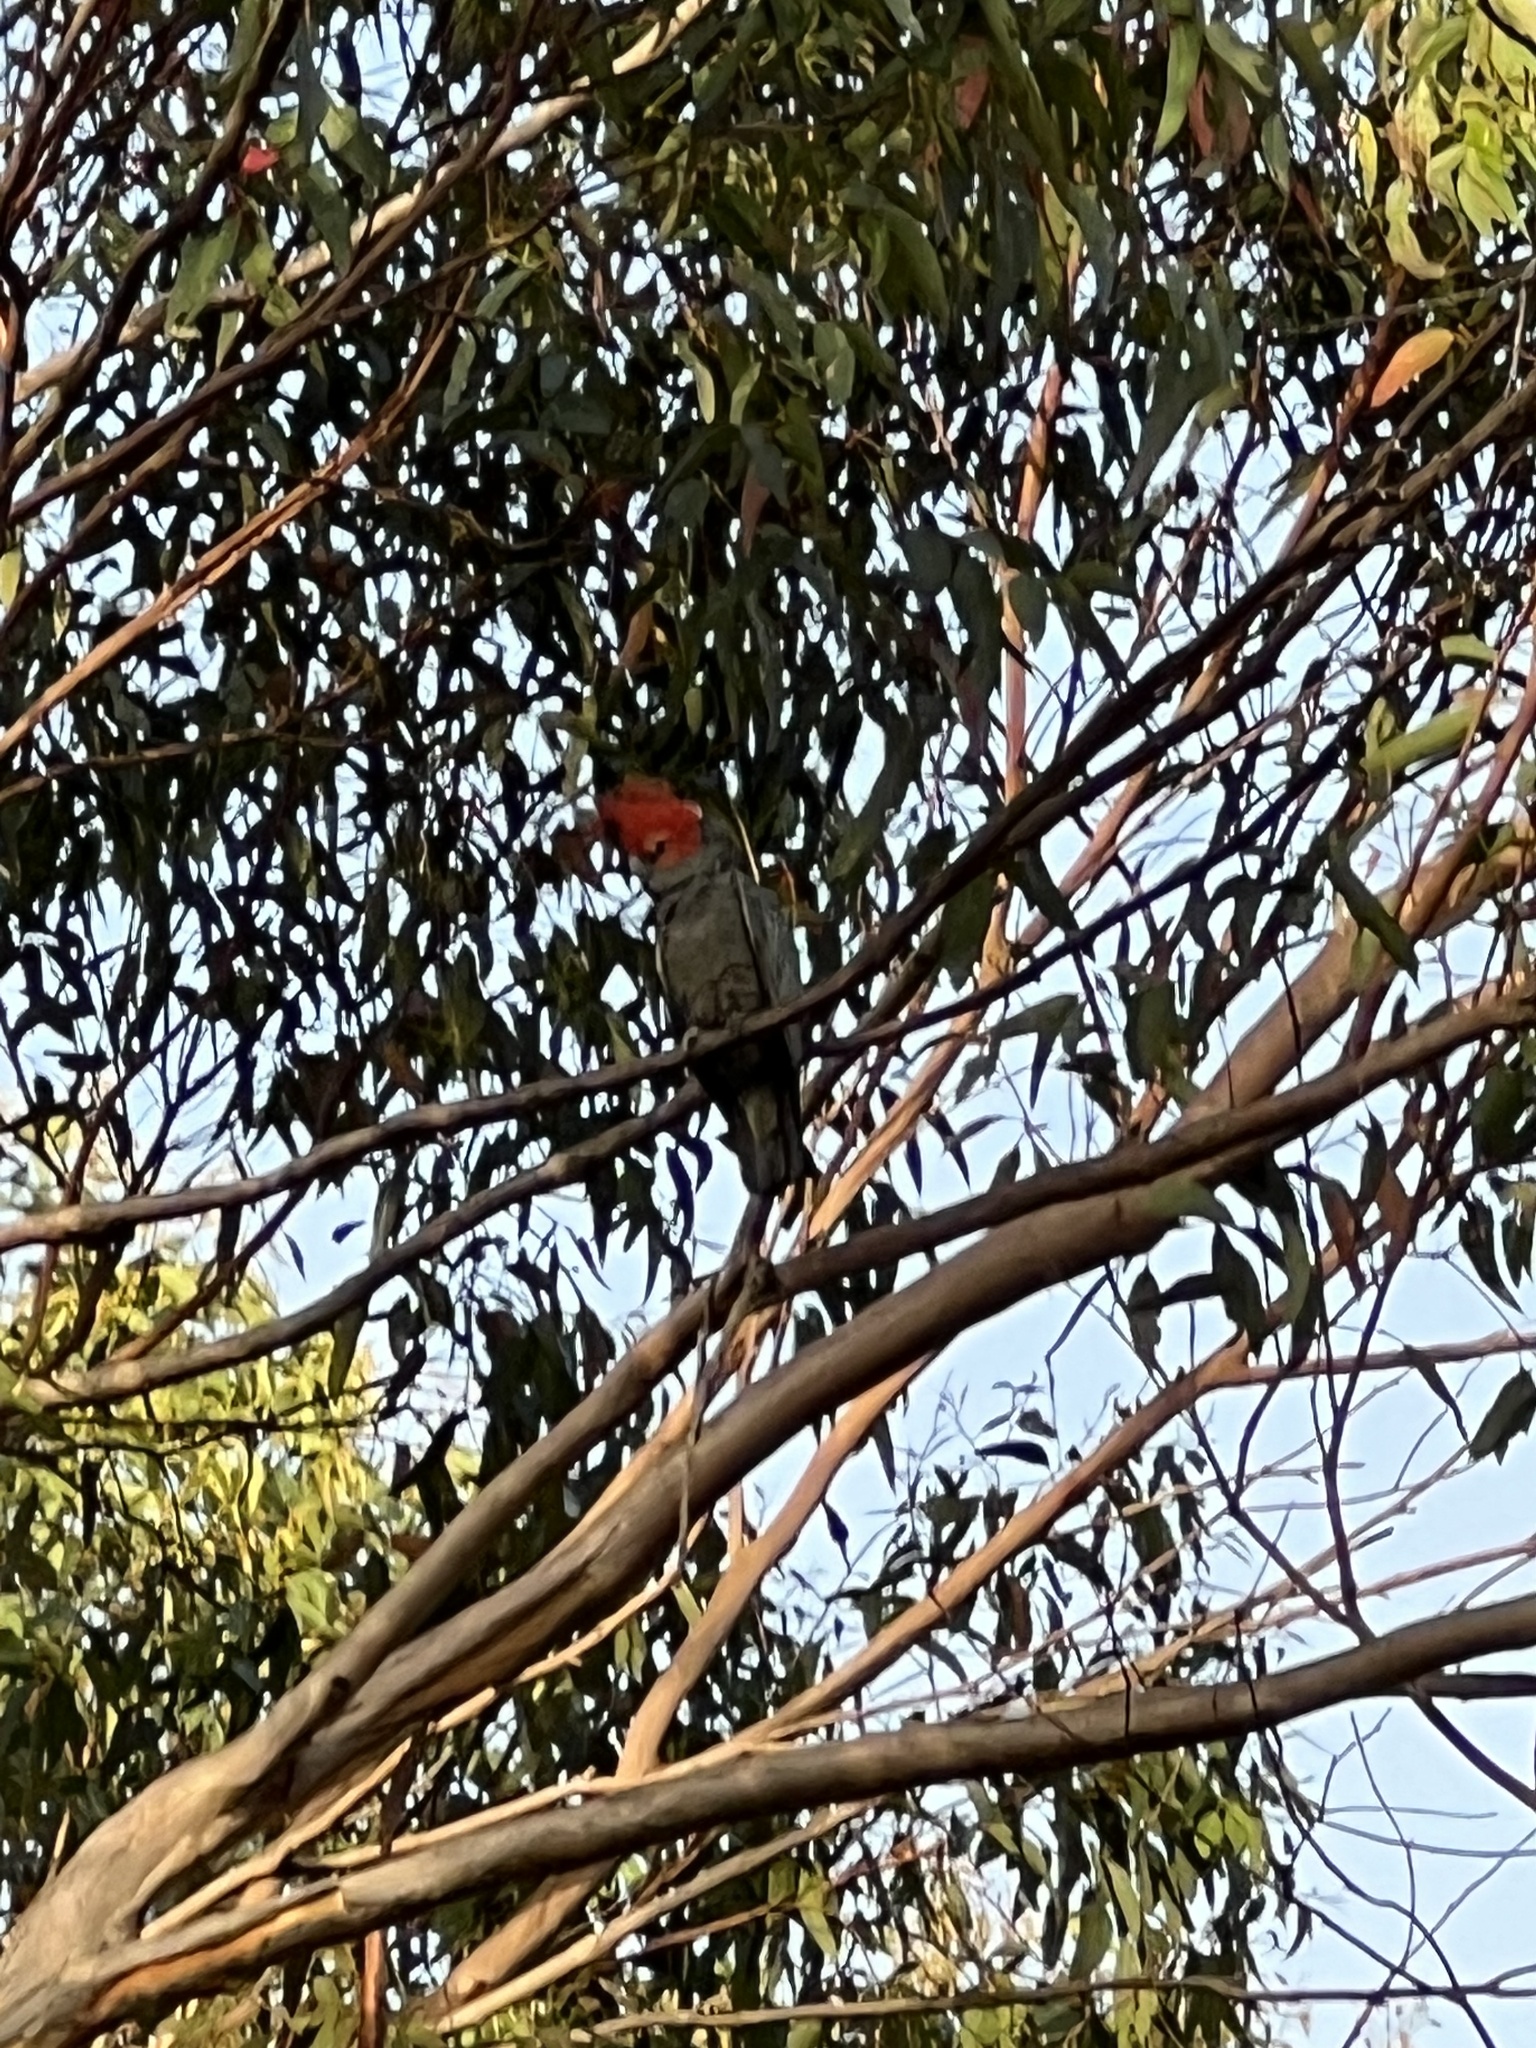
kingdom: Animalia
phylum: Chordata
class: Aves
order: Psittaciformes
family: Psittacidae
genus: Callocephalon
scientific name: Callocephalon fimbriatum
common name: Gang-gang cockatoo
